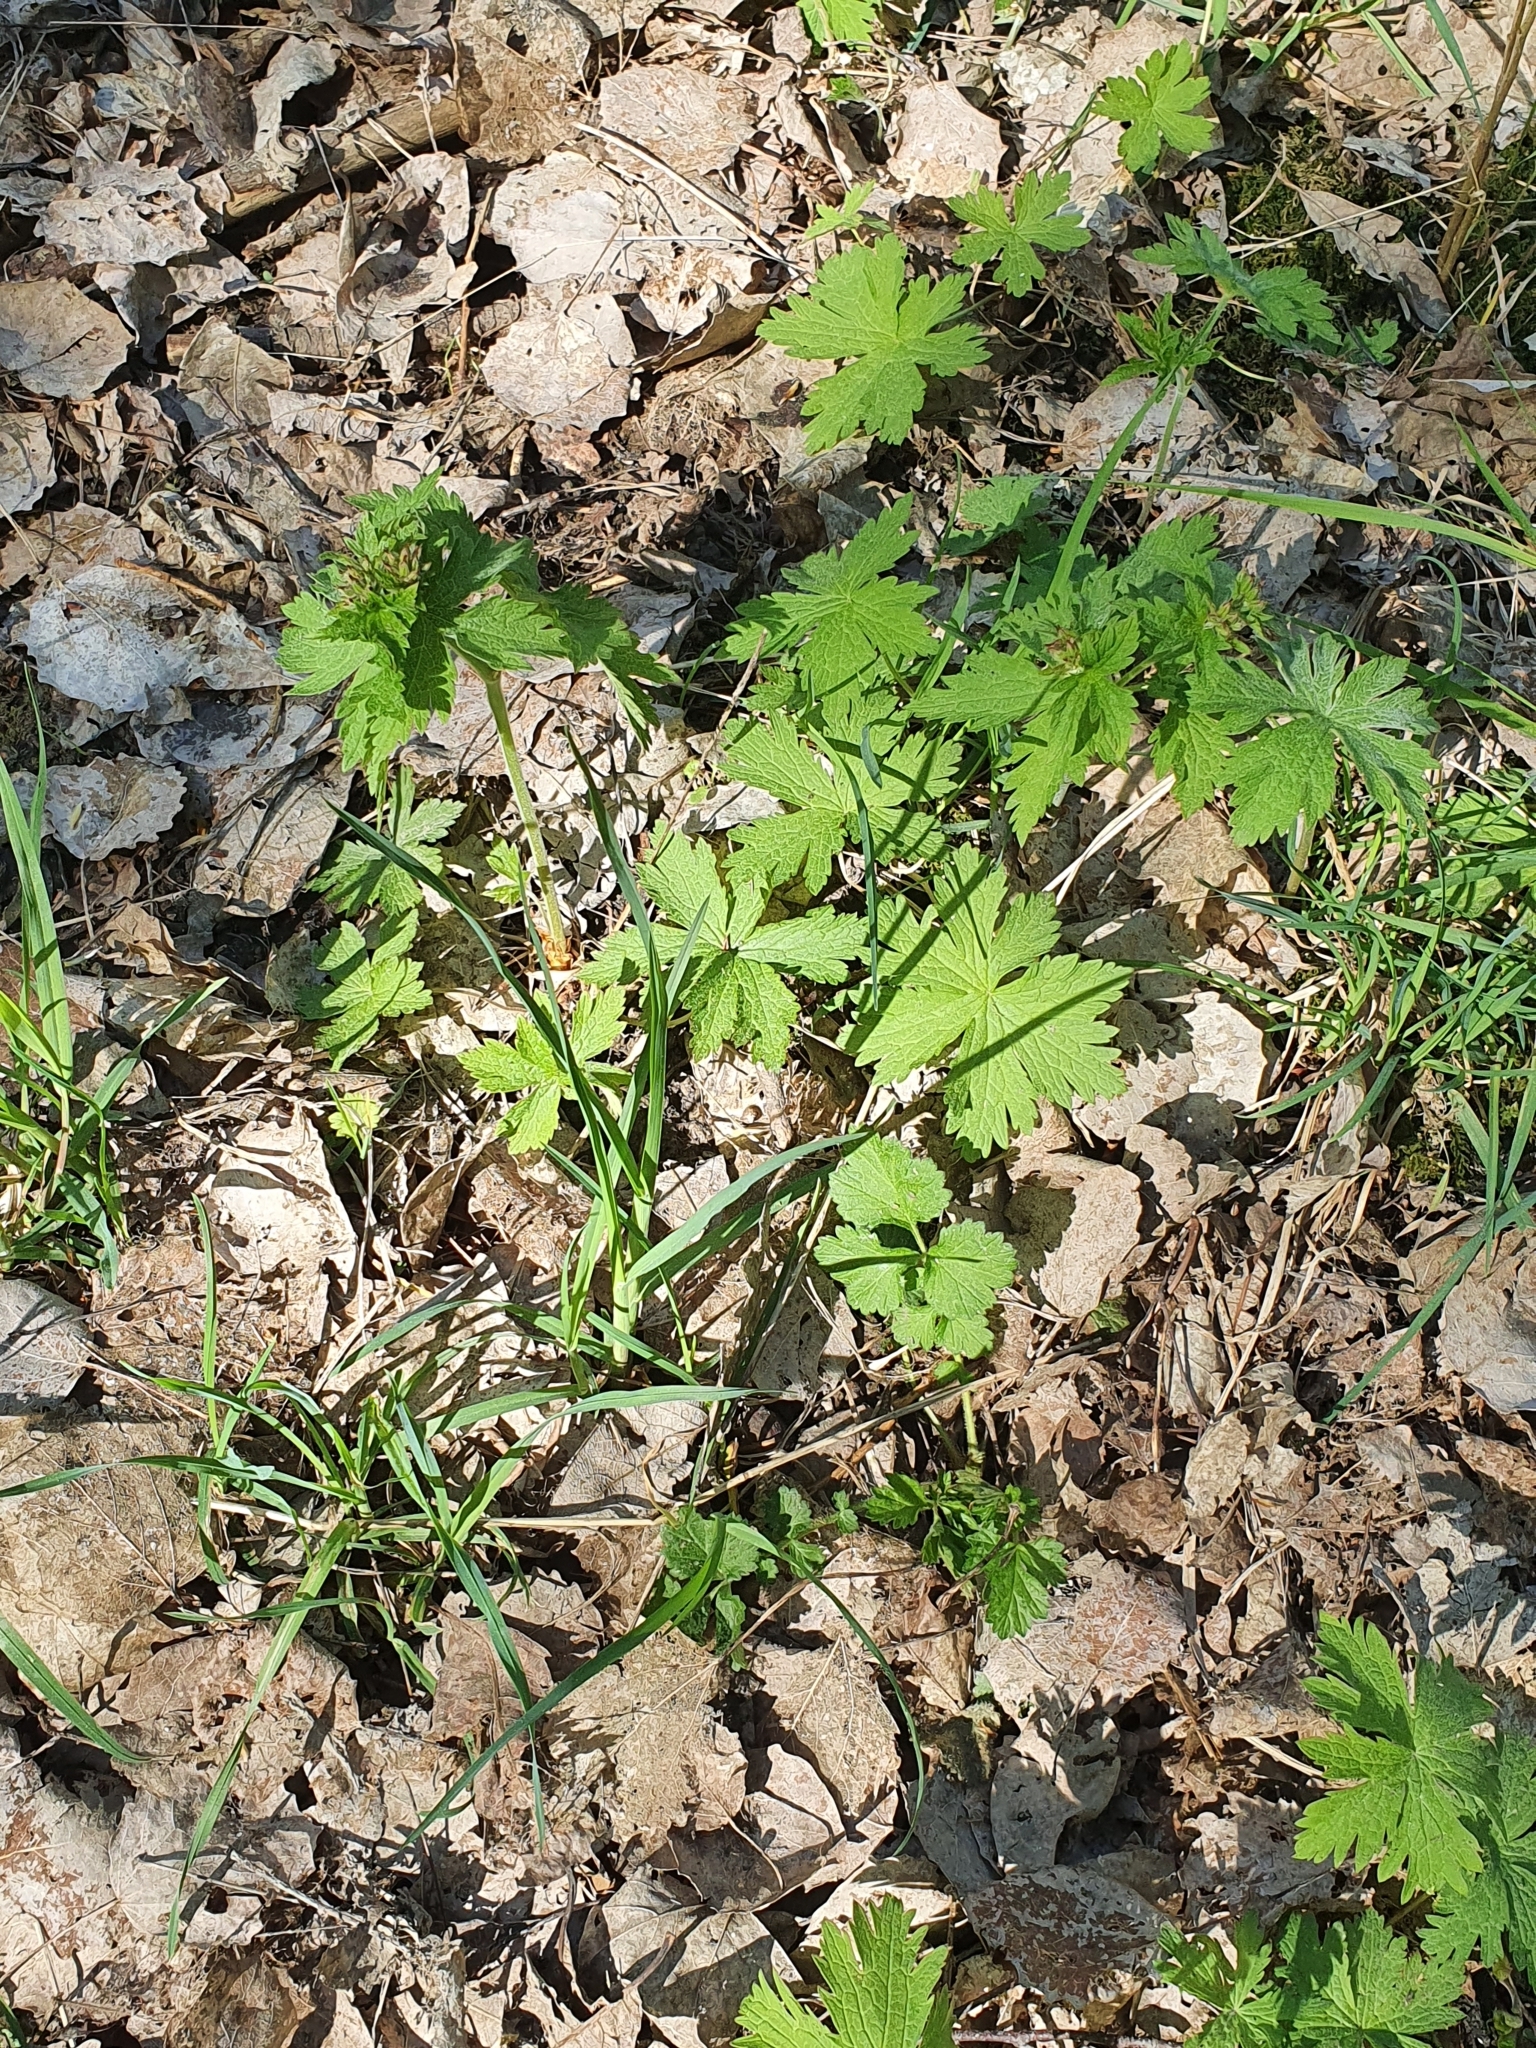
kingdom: Plantae
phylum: Tracheophyta
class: Magnoliopsida
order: Geraniales
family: Geraniaceae
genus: Geranium
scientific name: Geranium sylvaticum
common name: Wood crane's-bill
